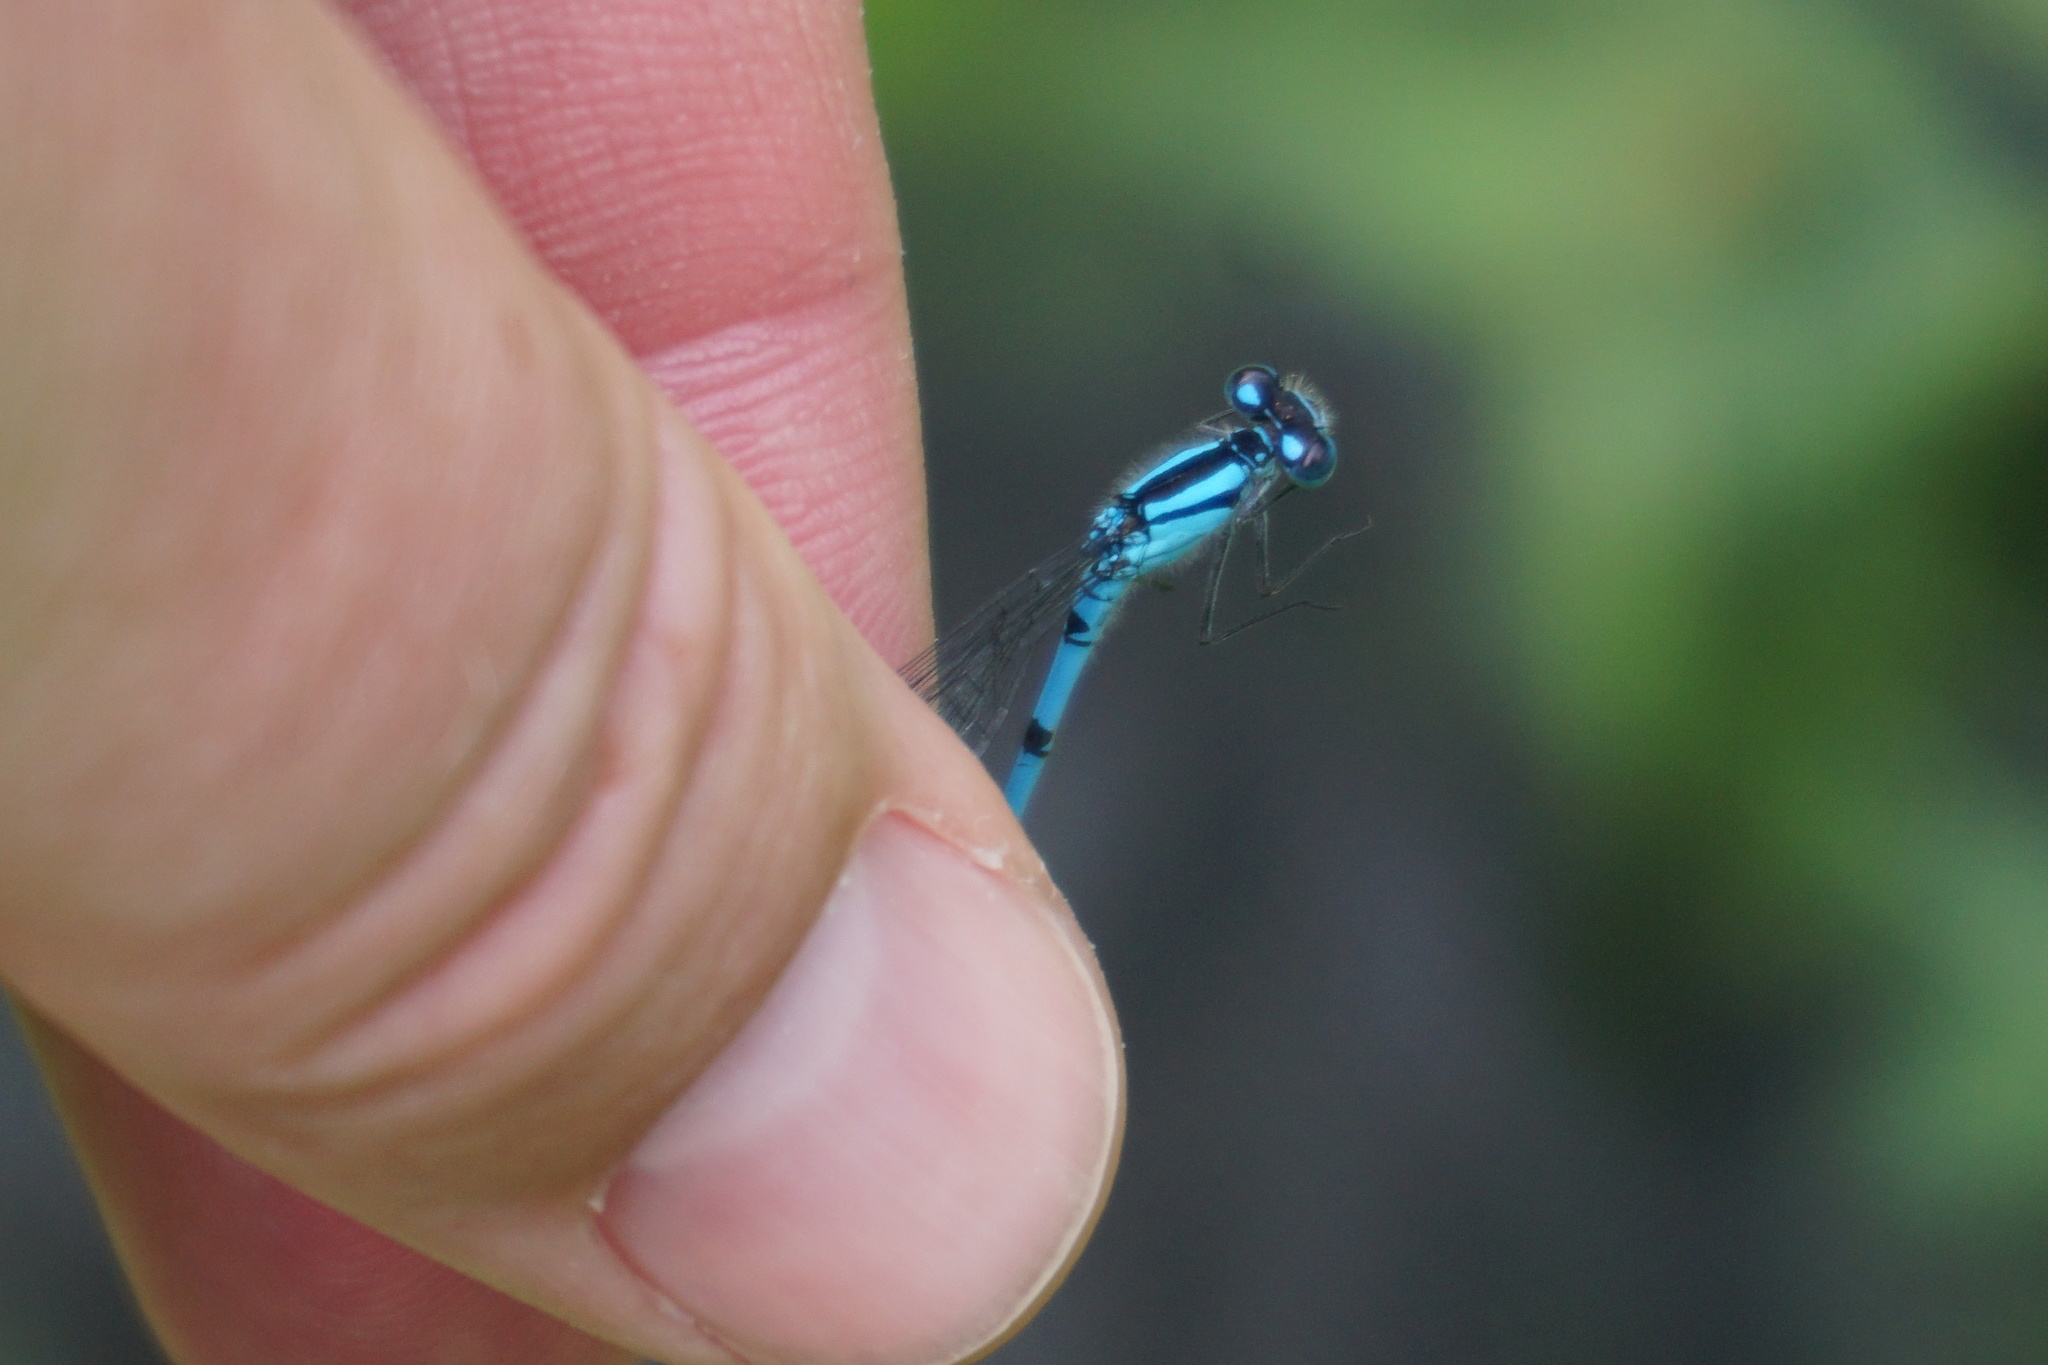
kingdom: Animalia
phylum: Arthropoda
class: Insecta
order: Odonata
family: Coenagrionidae
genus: Enallagma
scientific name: Enallagma cyathigerum
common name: Common blue damselfly
